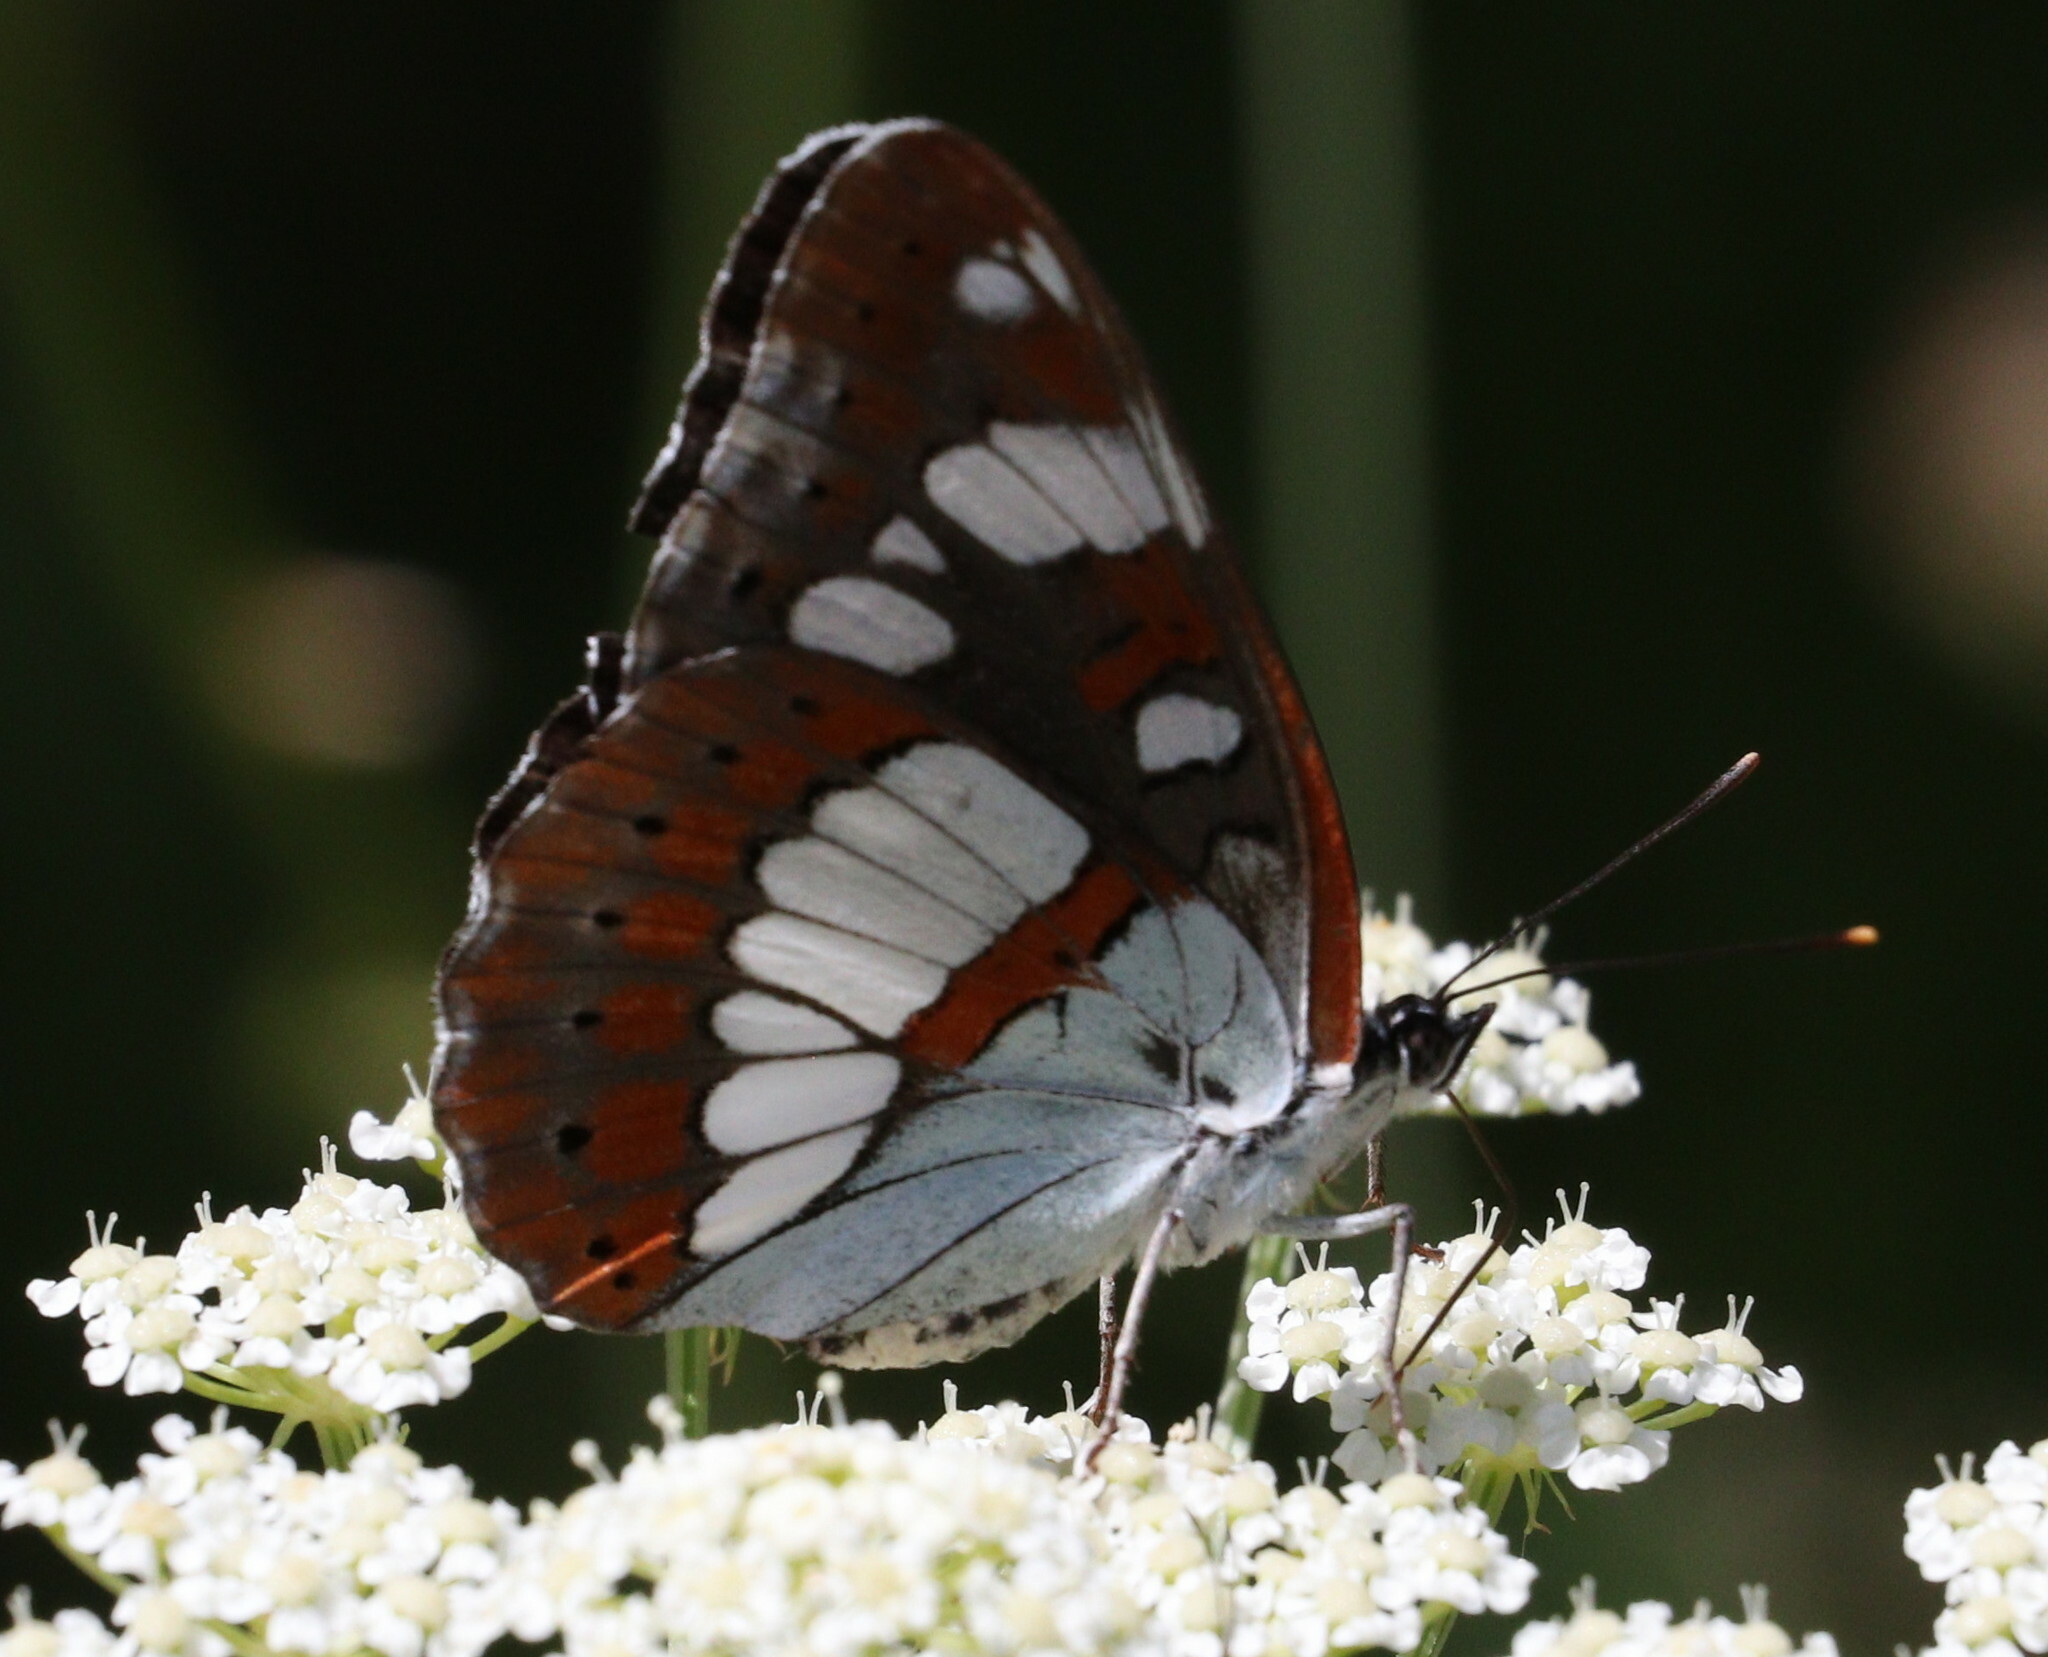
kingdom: Animalia
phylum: Arthropoda
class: Insecta
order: Lepidoptera
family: Nymphalidae
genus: Limenitis
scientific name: Limenitis reducta
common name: Southern white admiral
